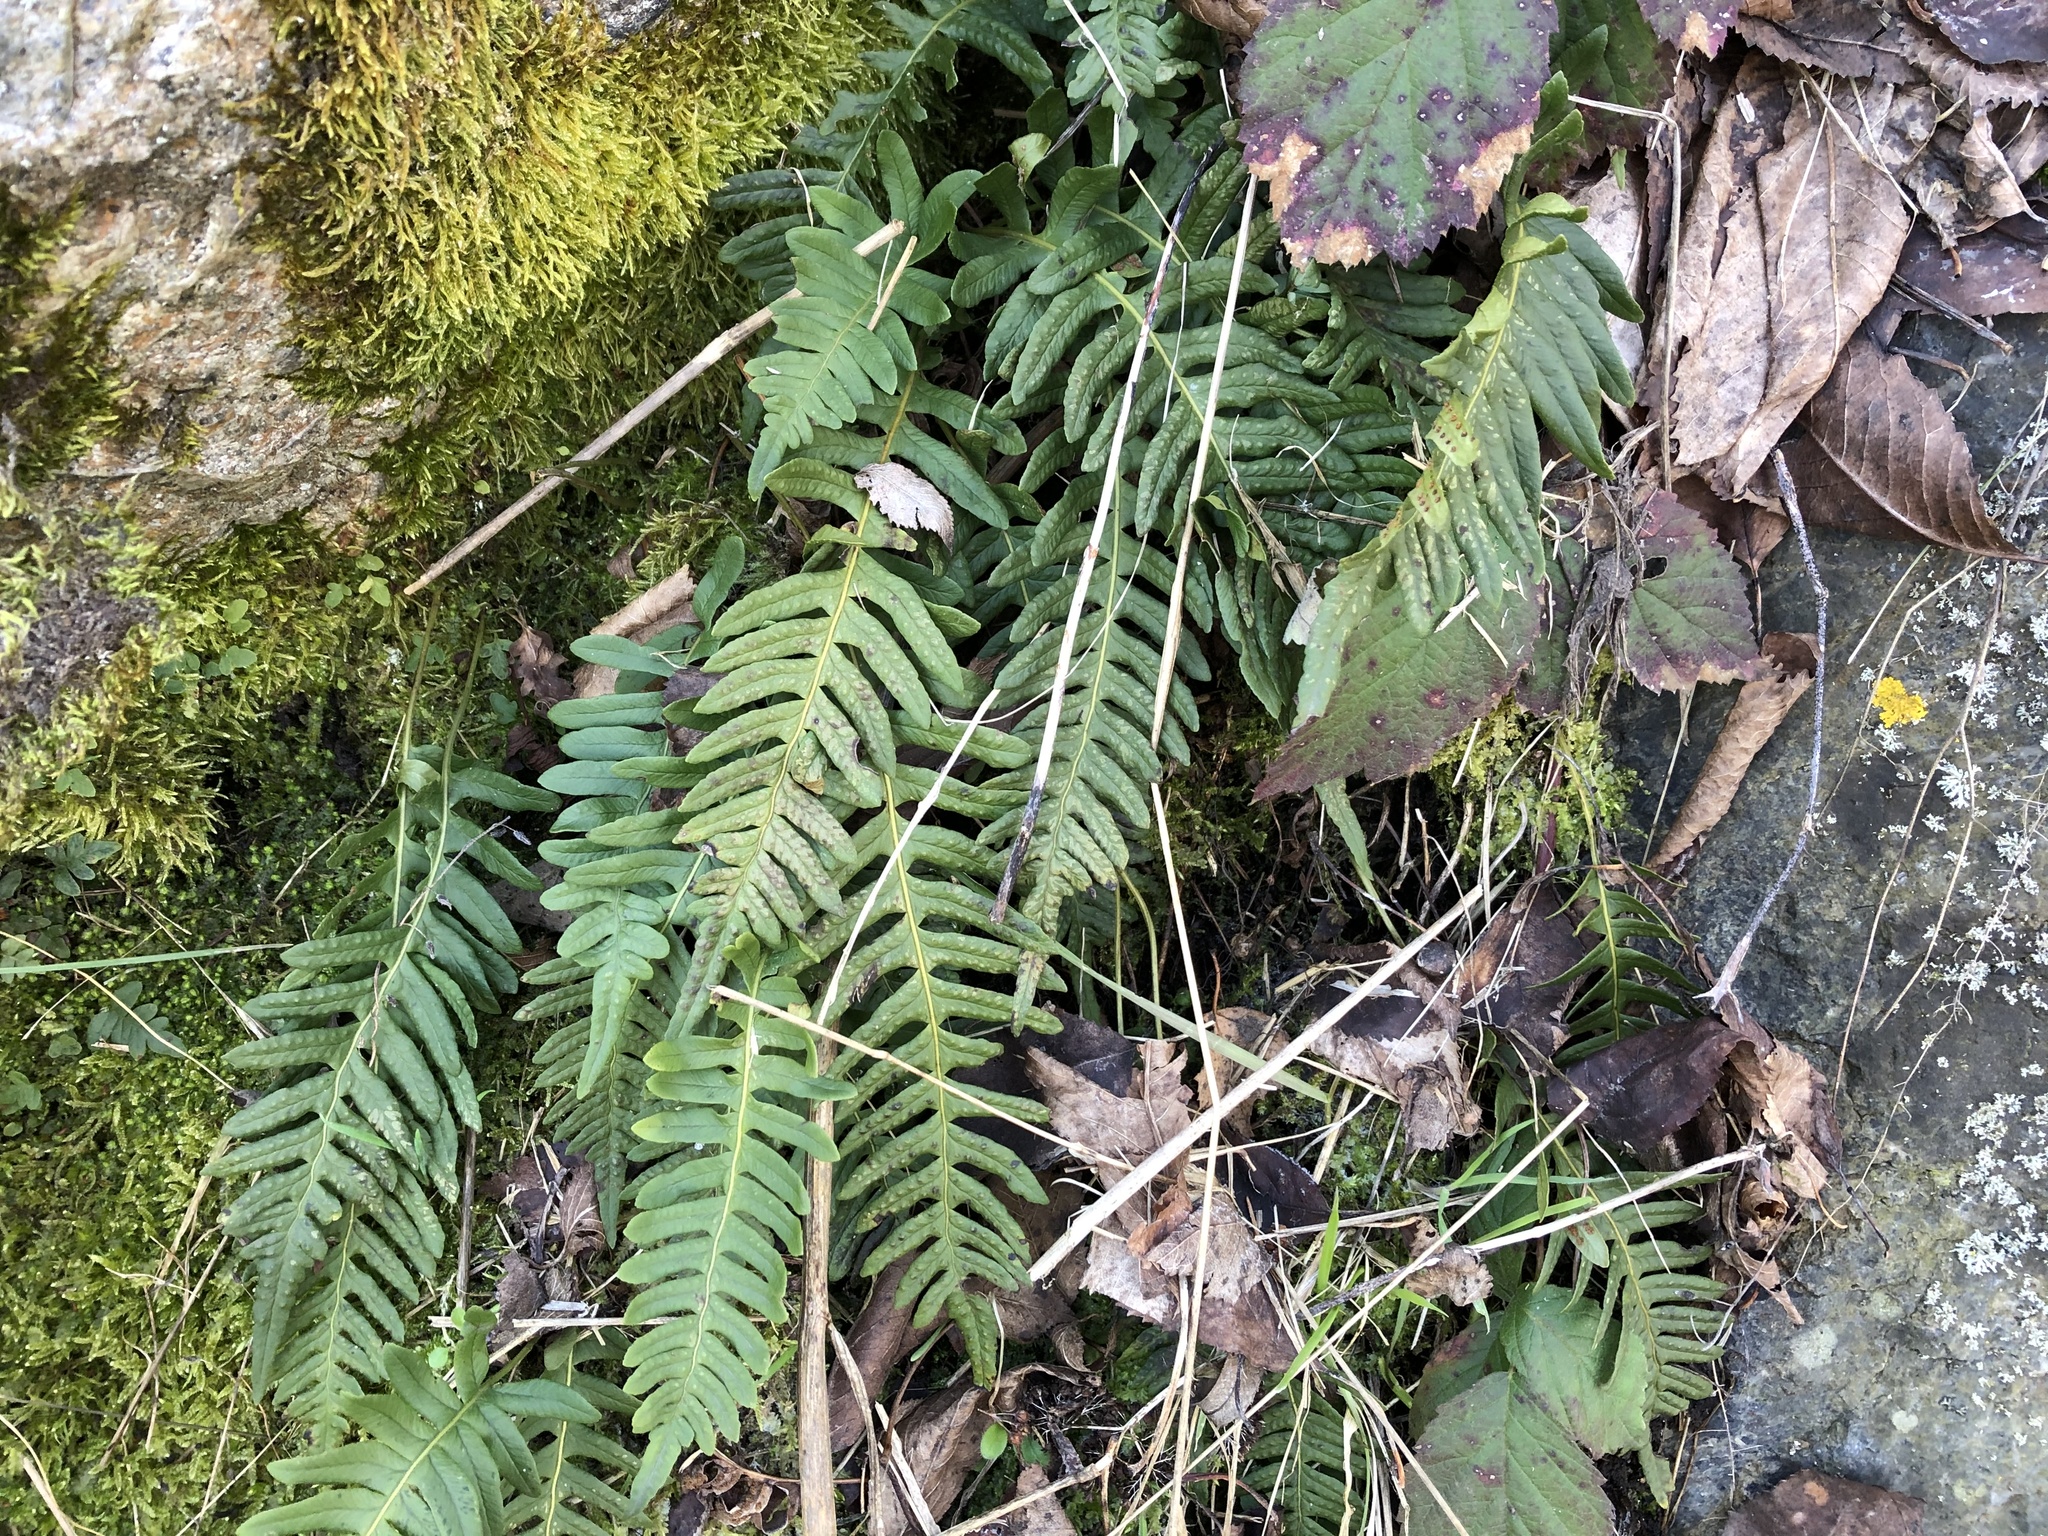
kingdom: Plantae
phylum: Tracheophyta
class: Polypodiopsida
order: Polypodiales
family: Polypodiaceae
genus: Polypodium
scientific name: Polypodium vulgare
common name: Common polypody
